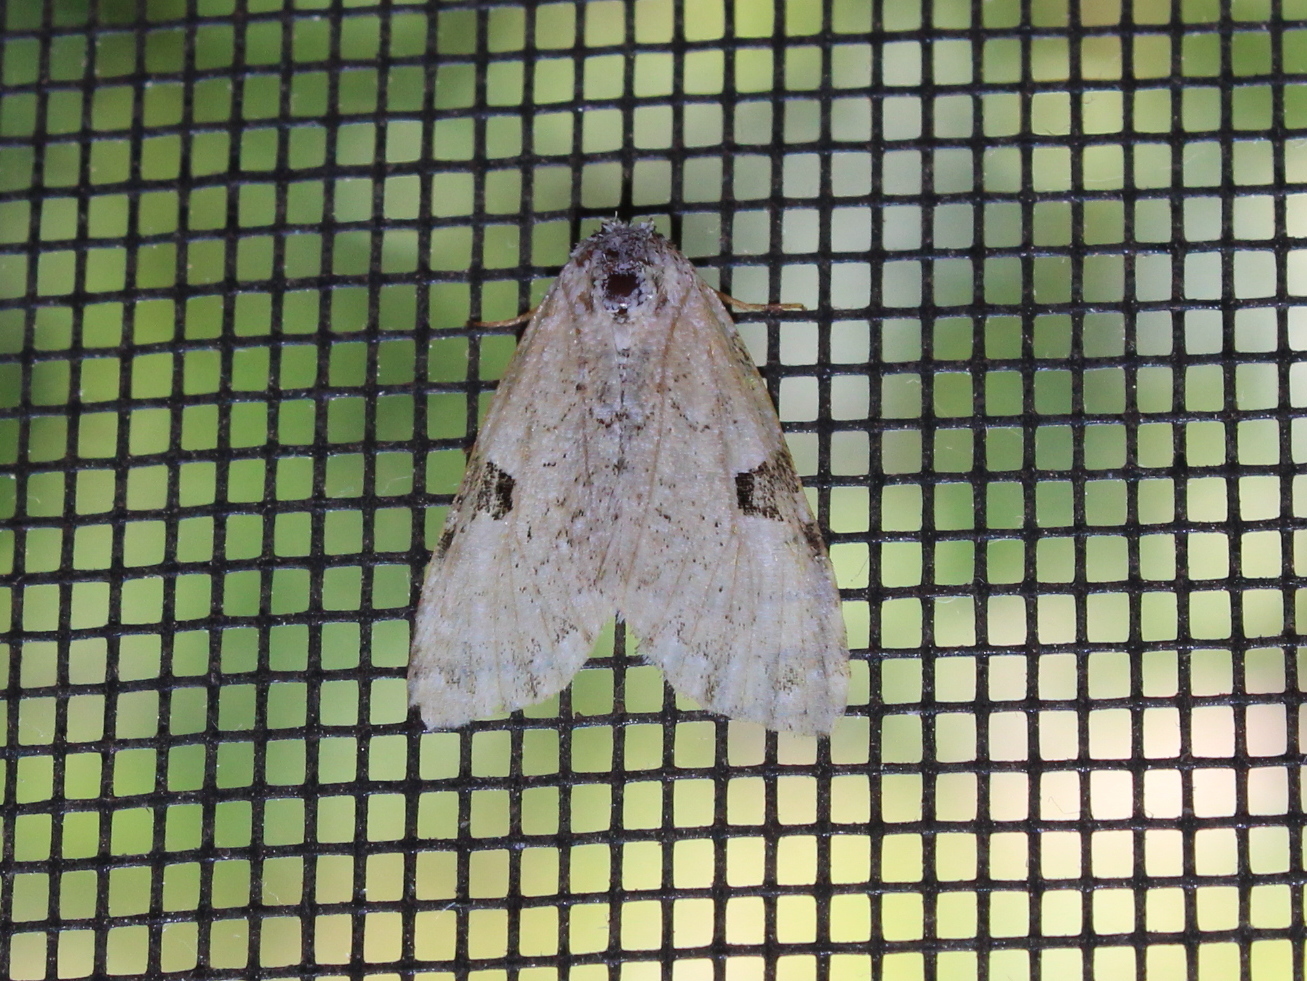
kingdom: Animalia
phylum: Arthropoda
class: Insecta
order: Lepidoptera
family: Noctuidae
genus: Leuconycta
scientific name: Leuconycta diphteroides
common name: Green leuconycta moth
